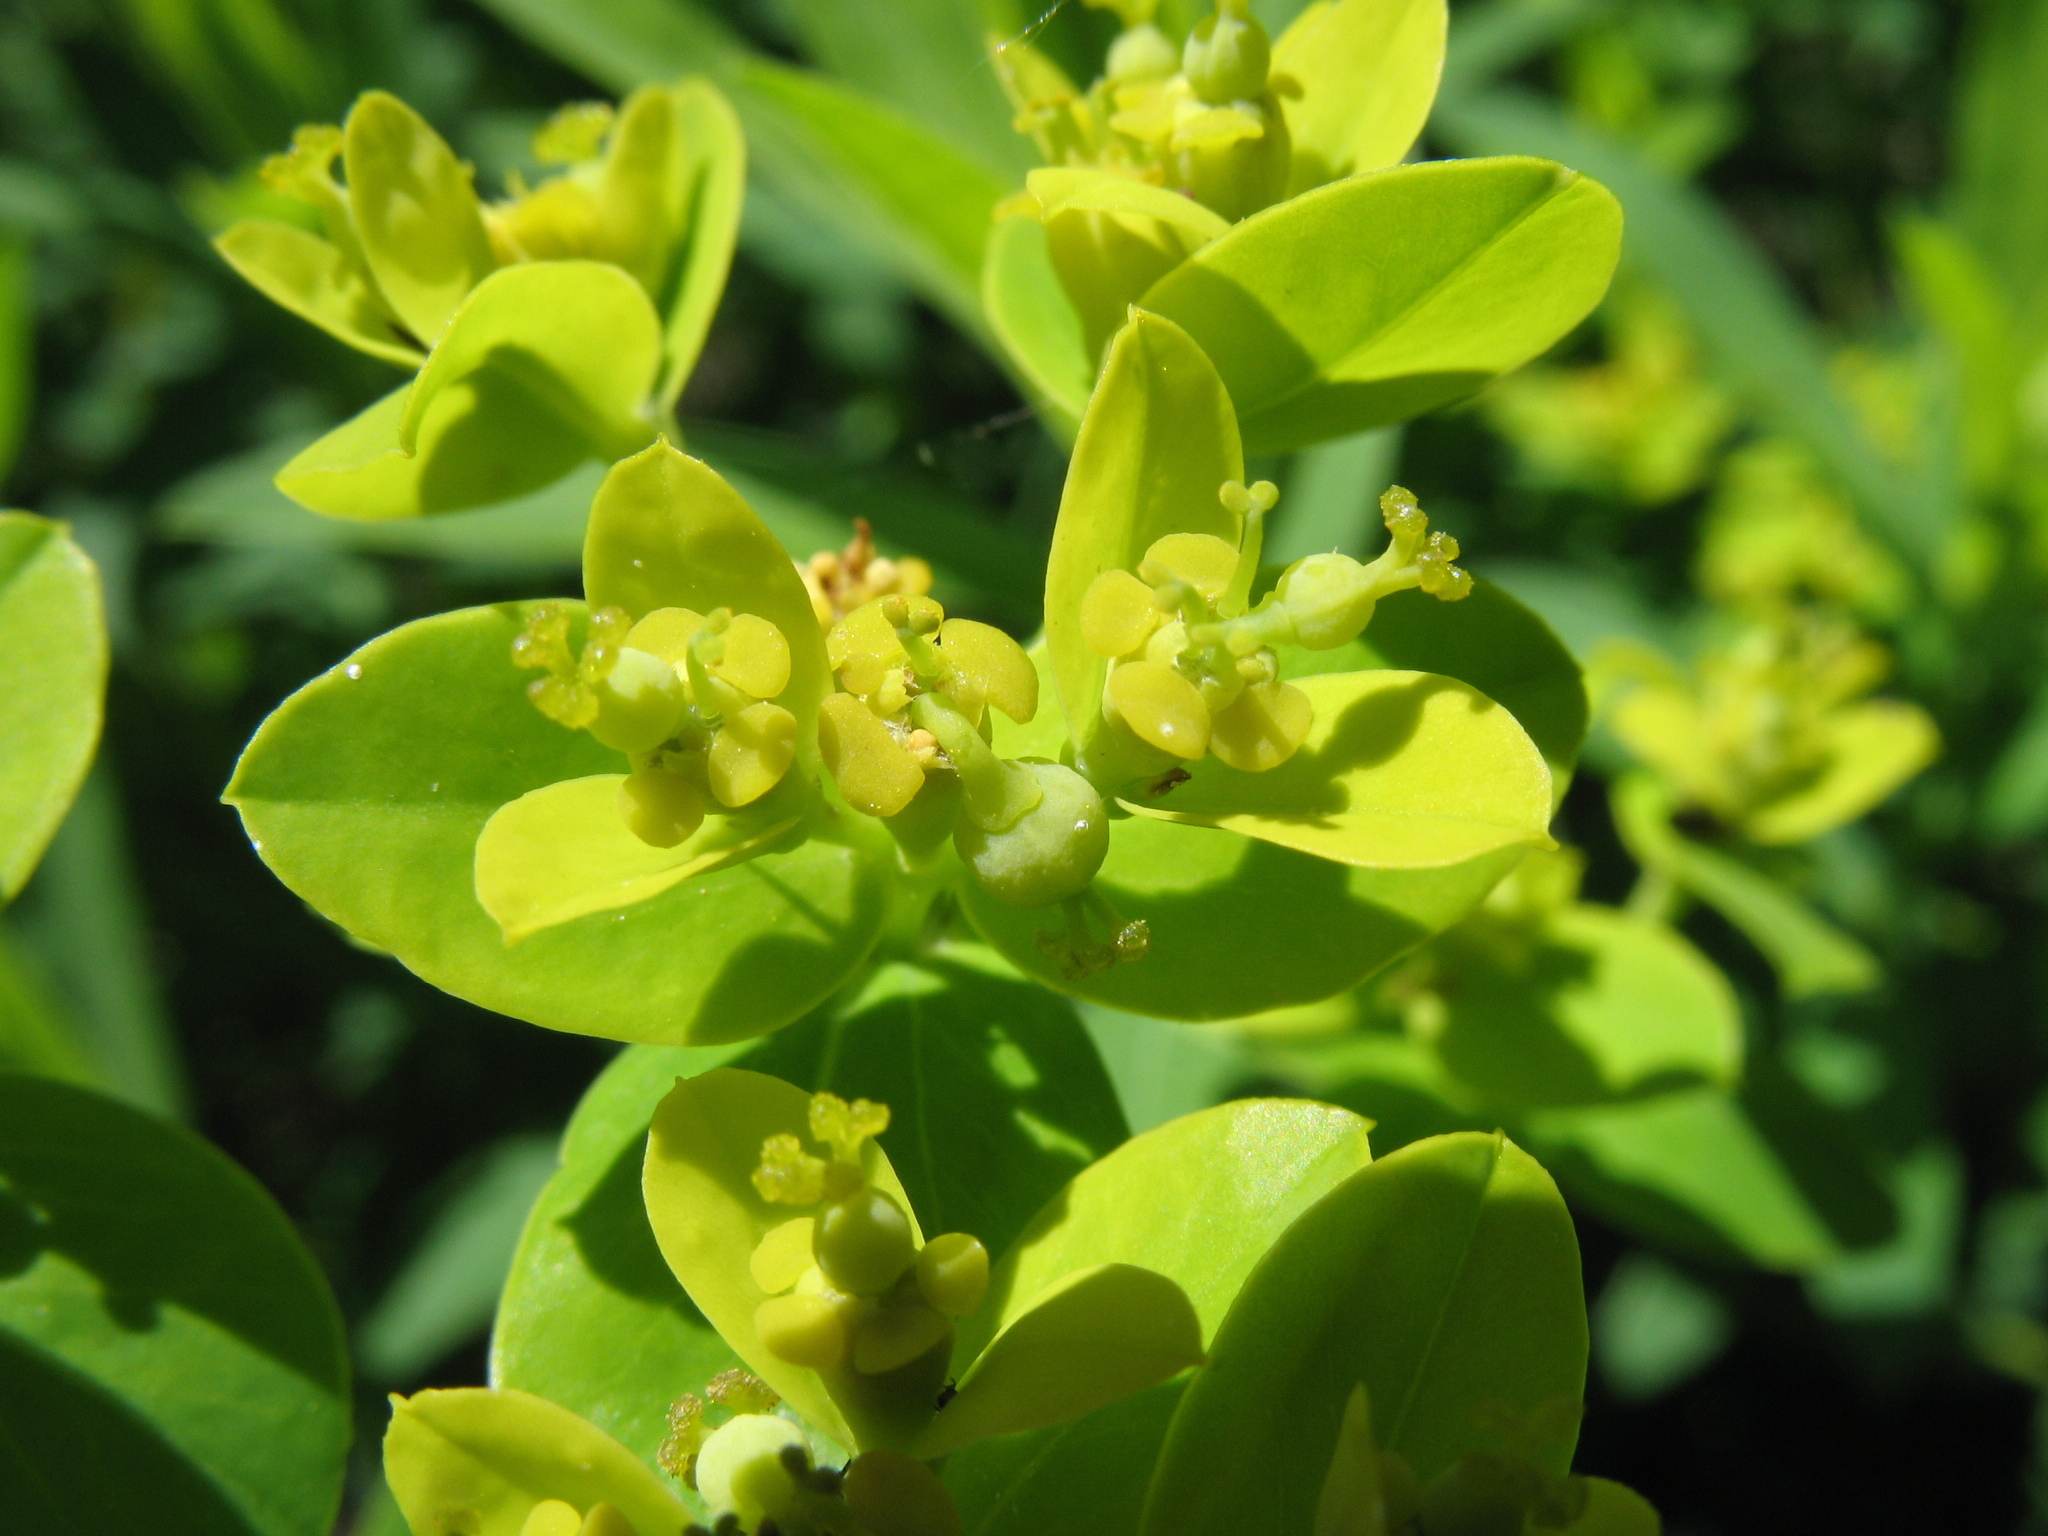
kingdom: Plantae
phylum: Tracheophyta
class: Magnoliopsida
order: Malpighiales
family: Euphorbiaceae
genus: Euphorbia
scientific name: Euphorbia semivillosa
